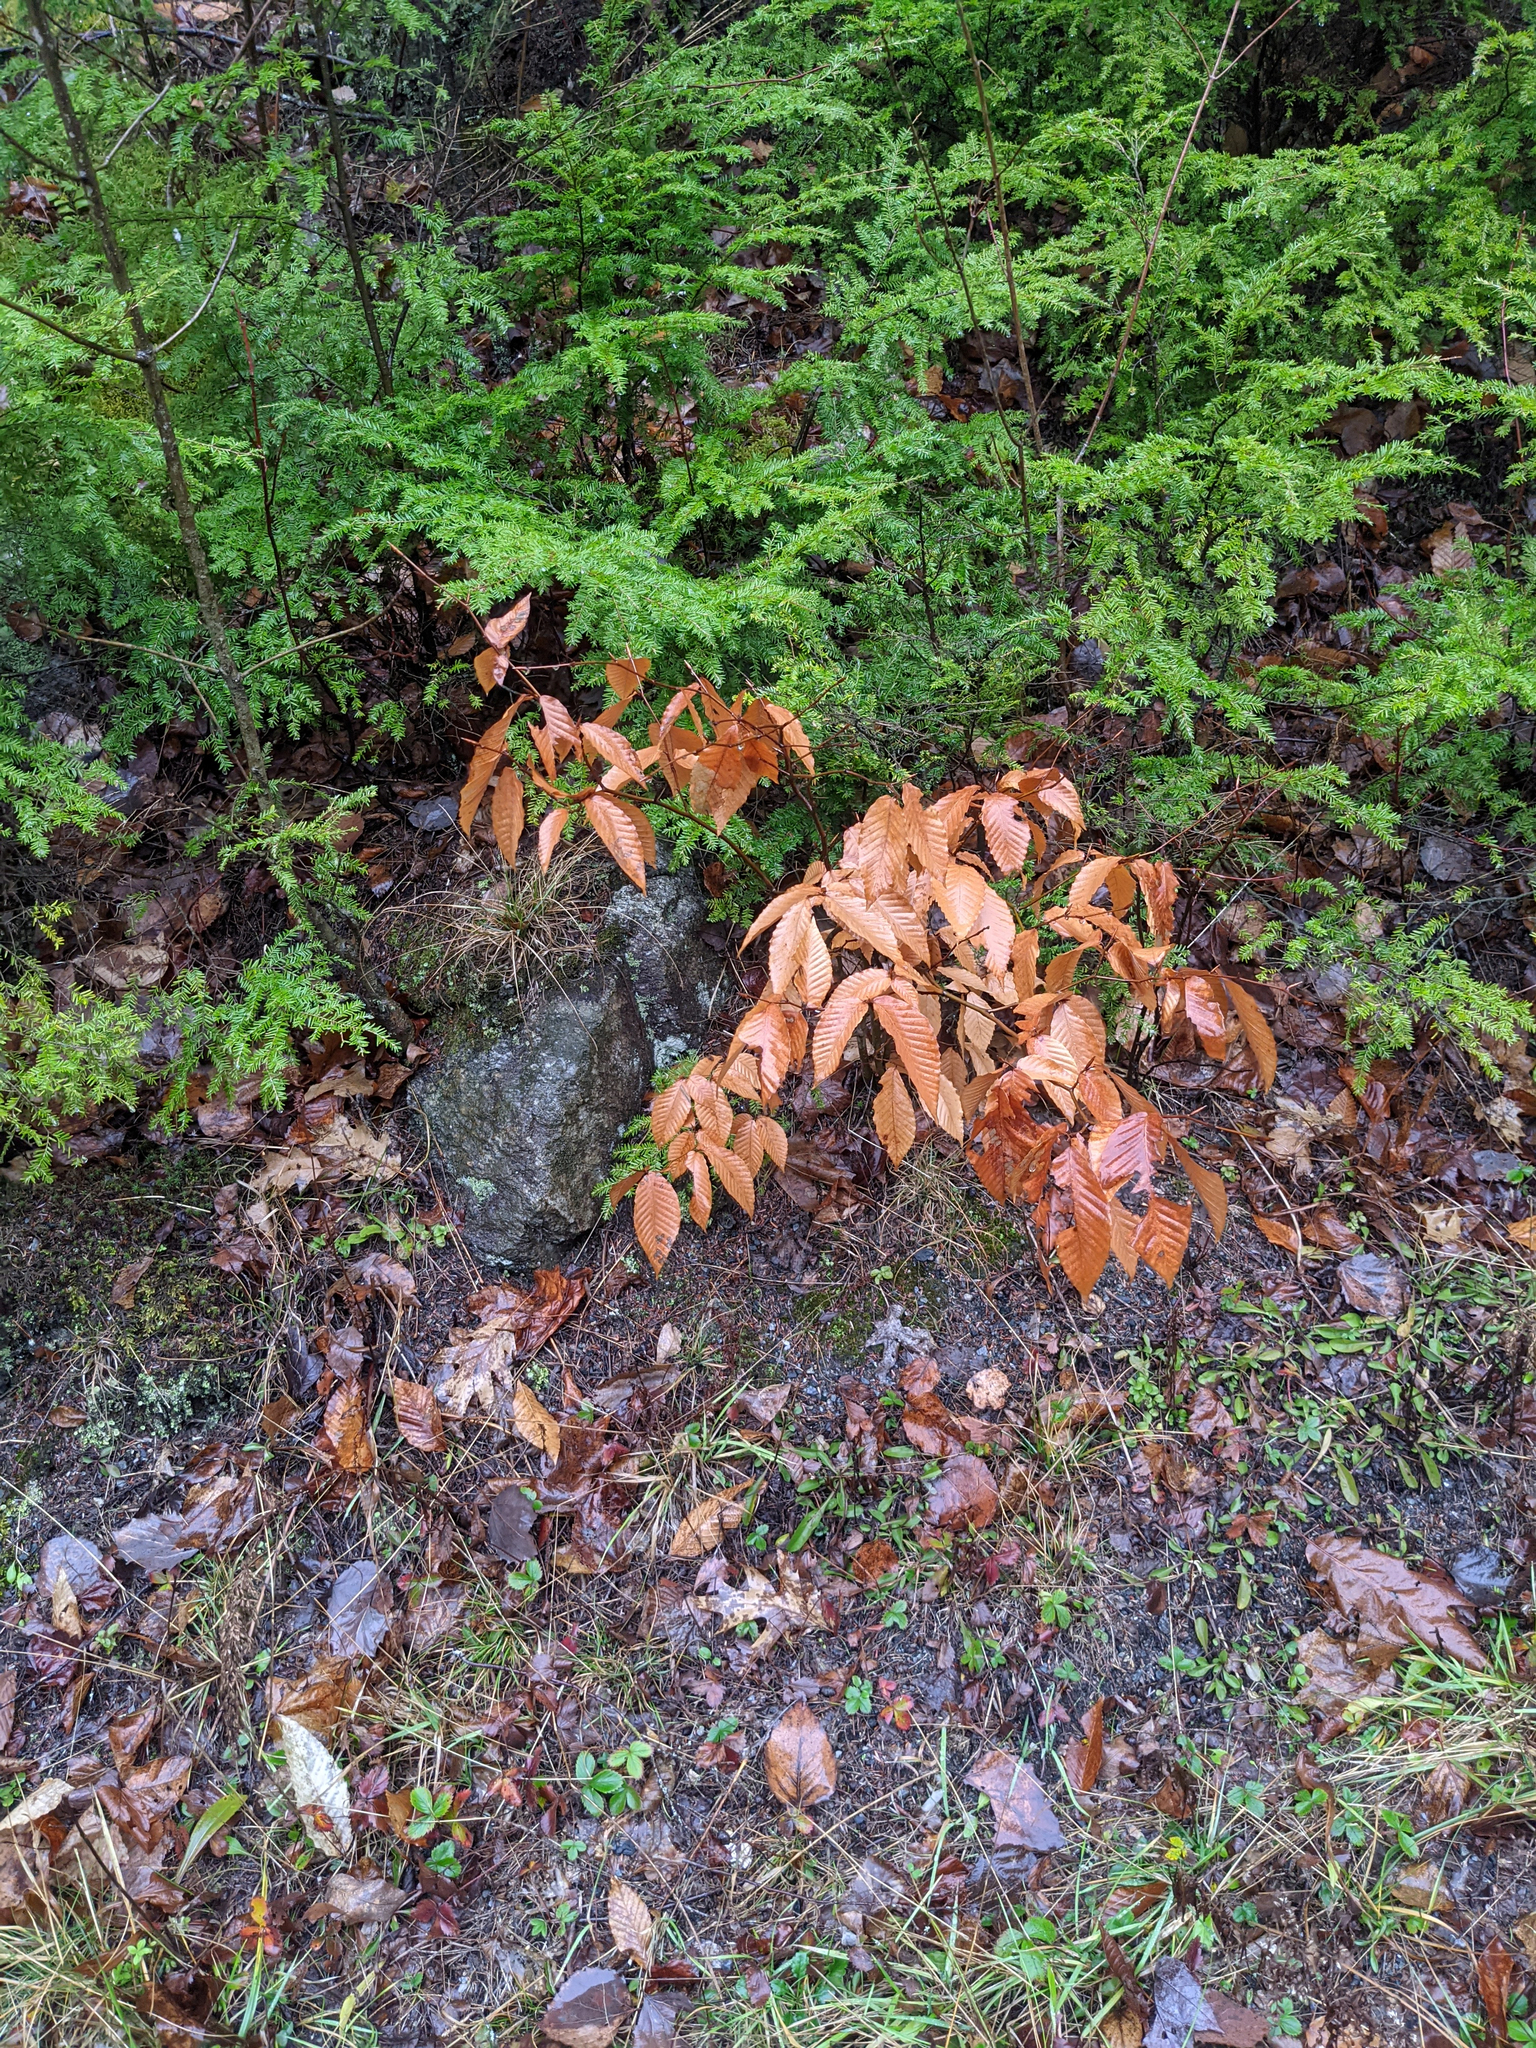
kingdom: Plantae
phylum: Tracheophyta
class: Magnoliopsida
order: Fagales
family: Fagaceae
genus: Fagus
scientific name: Fagus grandifolia
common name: American beech
